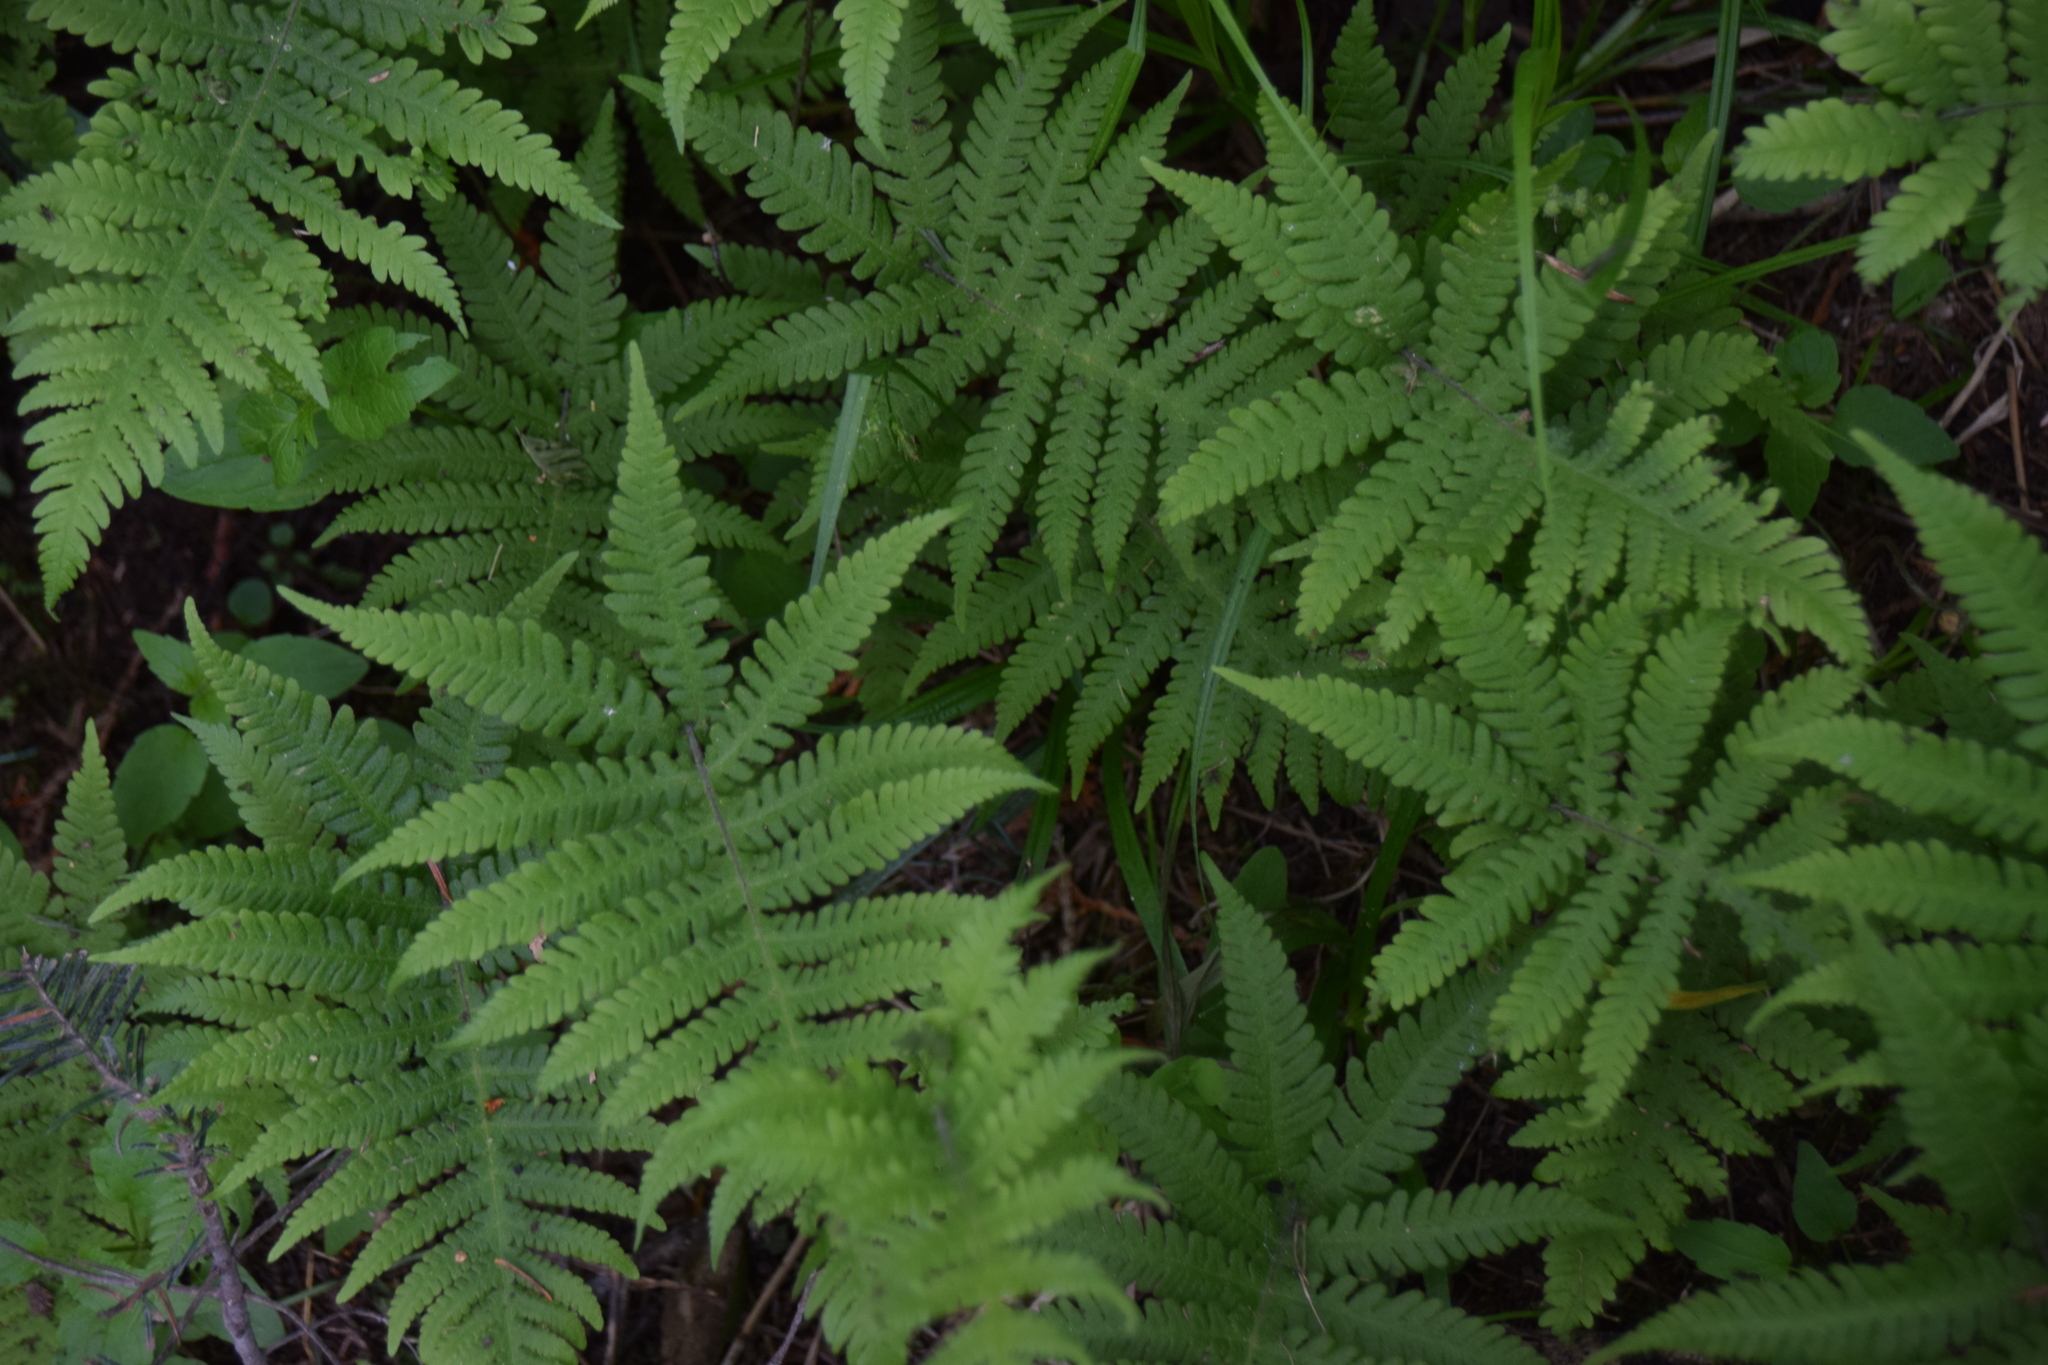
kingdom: Plantae
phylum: Tracheophyta
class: Polypodiopsida
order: Polypodiales
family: Thelypteridaceae
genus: Phegopteris
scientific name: Phegopteris connectilis
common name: Beech fern
